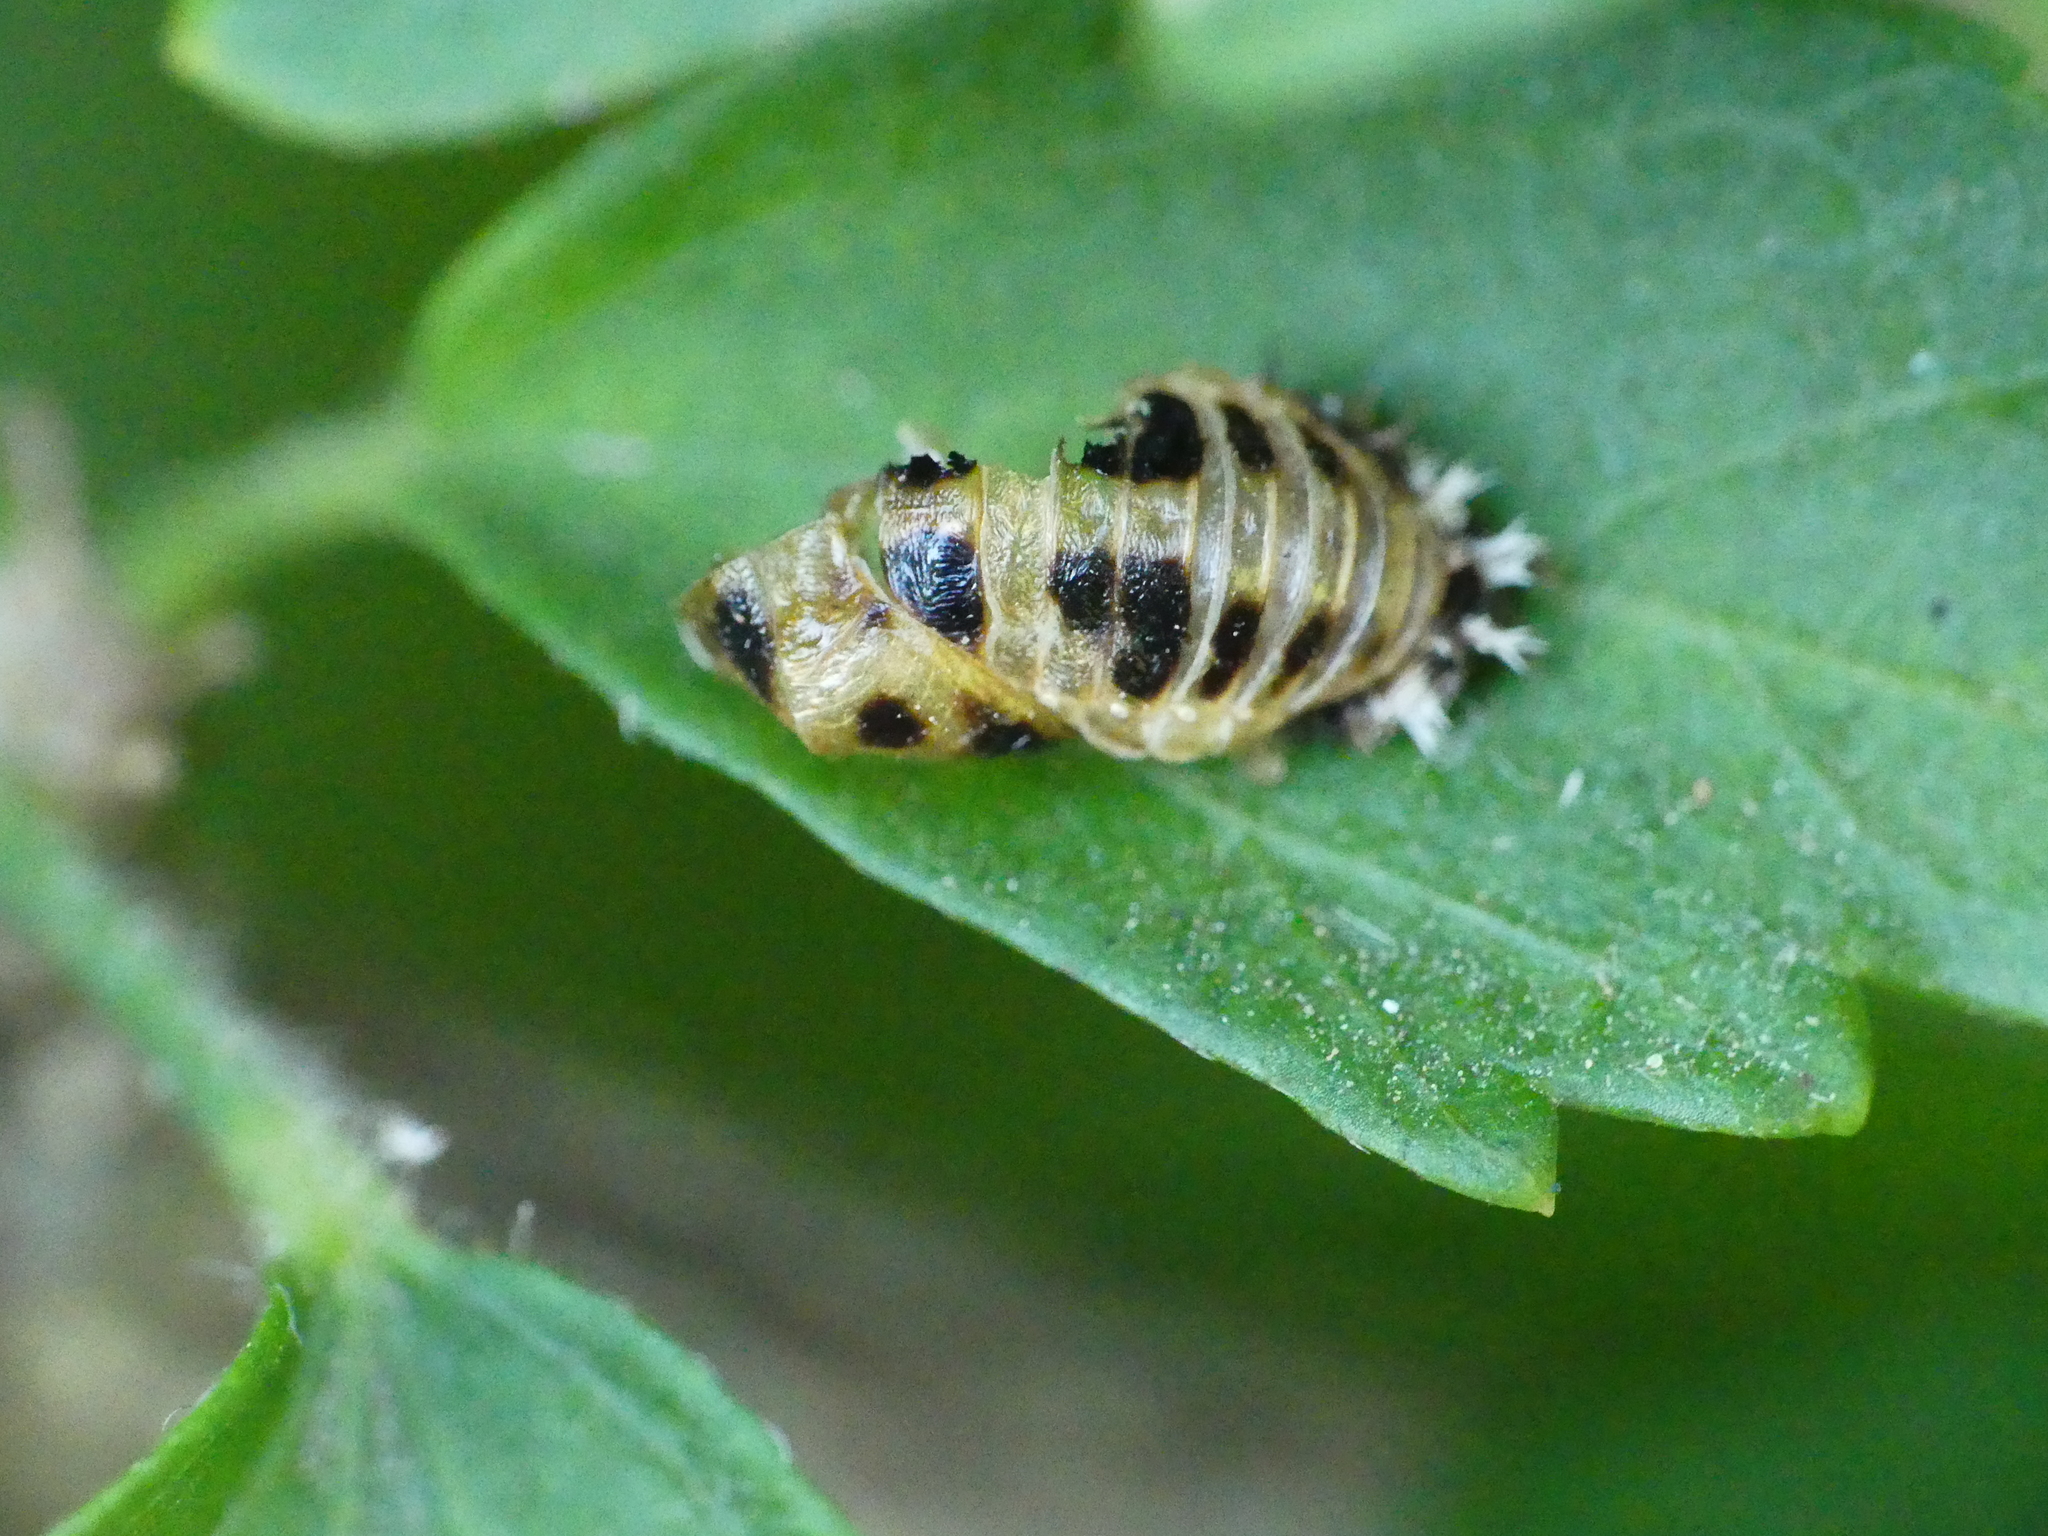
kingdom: Animalia
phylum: Arthropoda
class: Insecta
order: Coleoptera
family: Coccinellidae
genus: Harmonia
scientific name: Harmonia axyridis
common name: Harlequin ladybird
